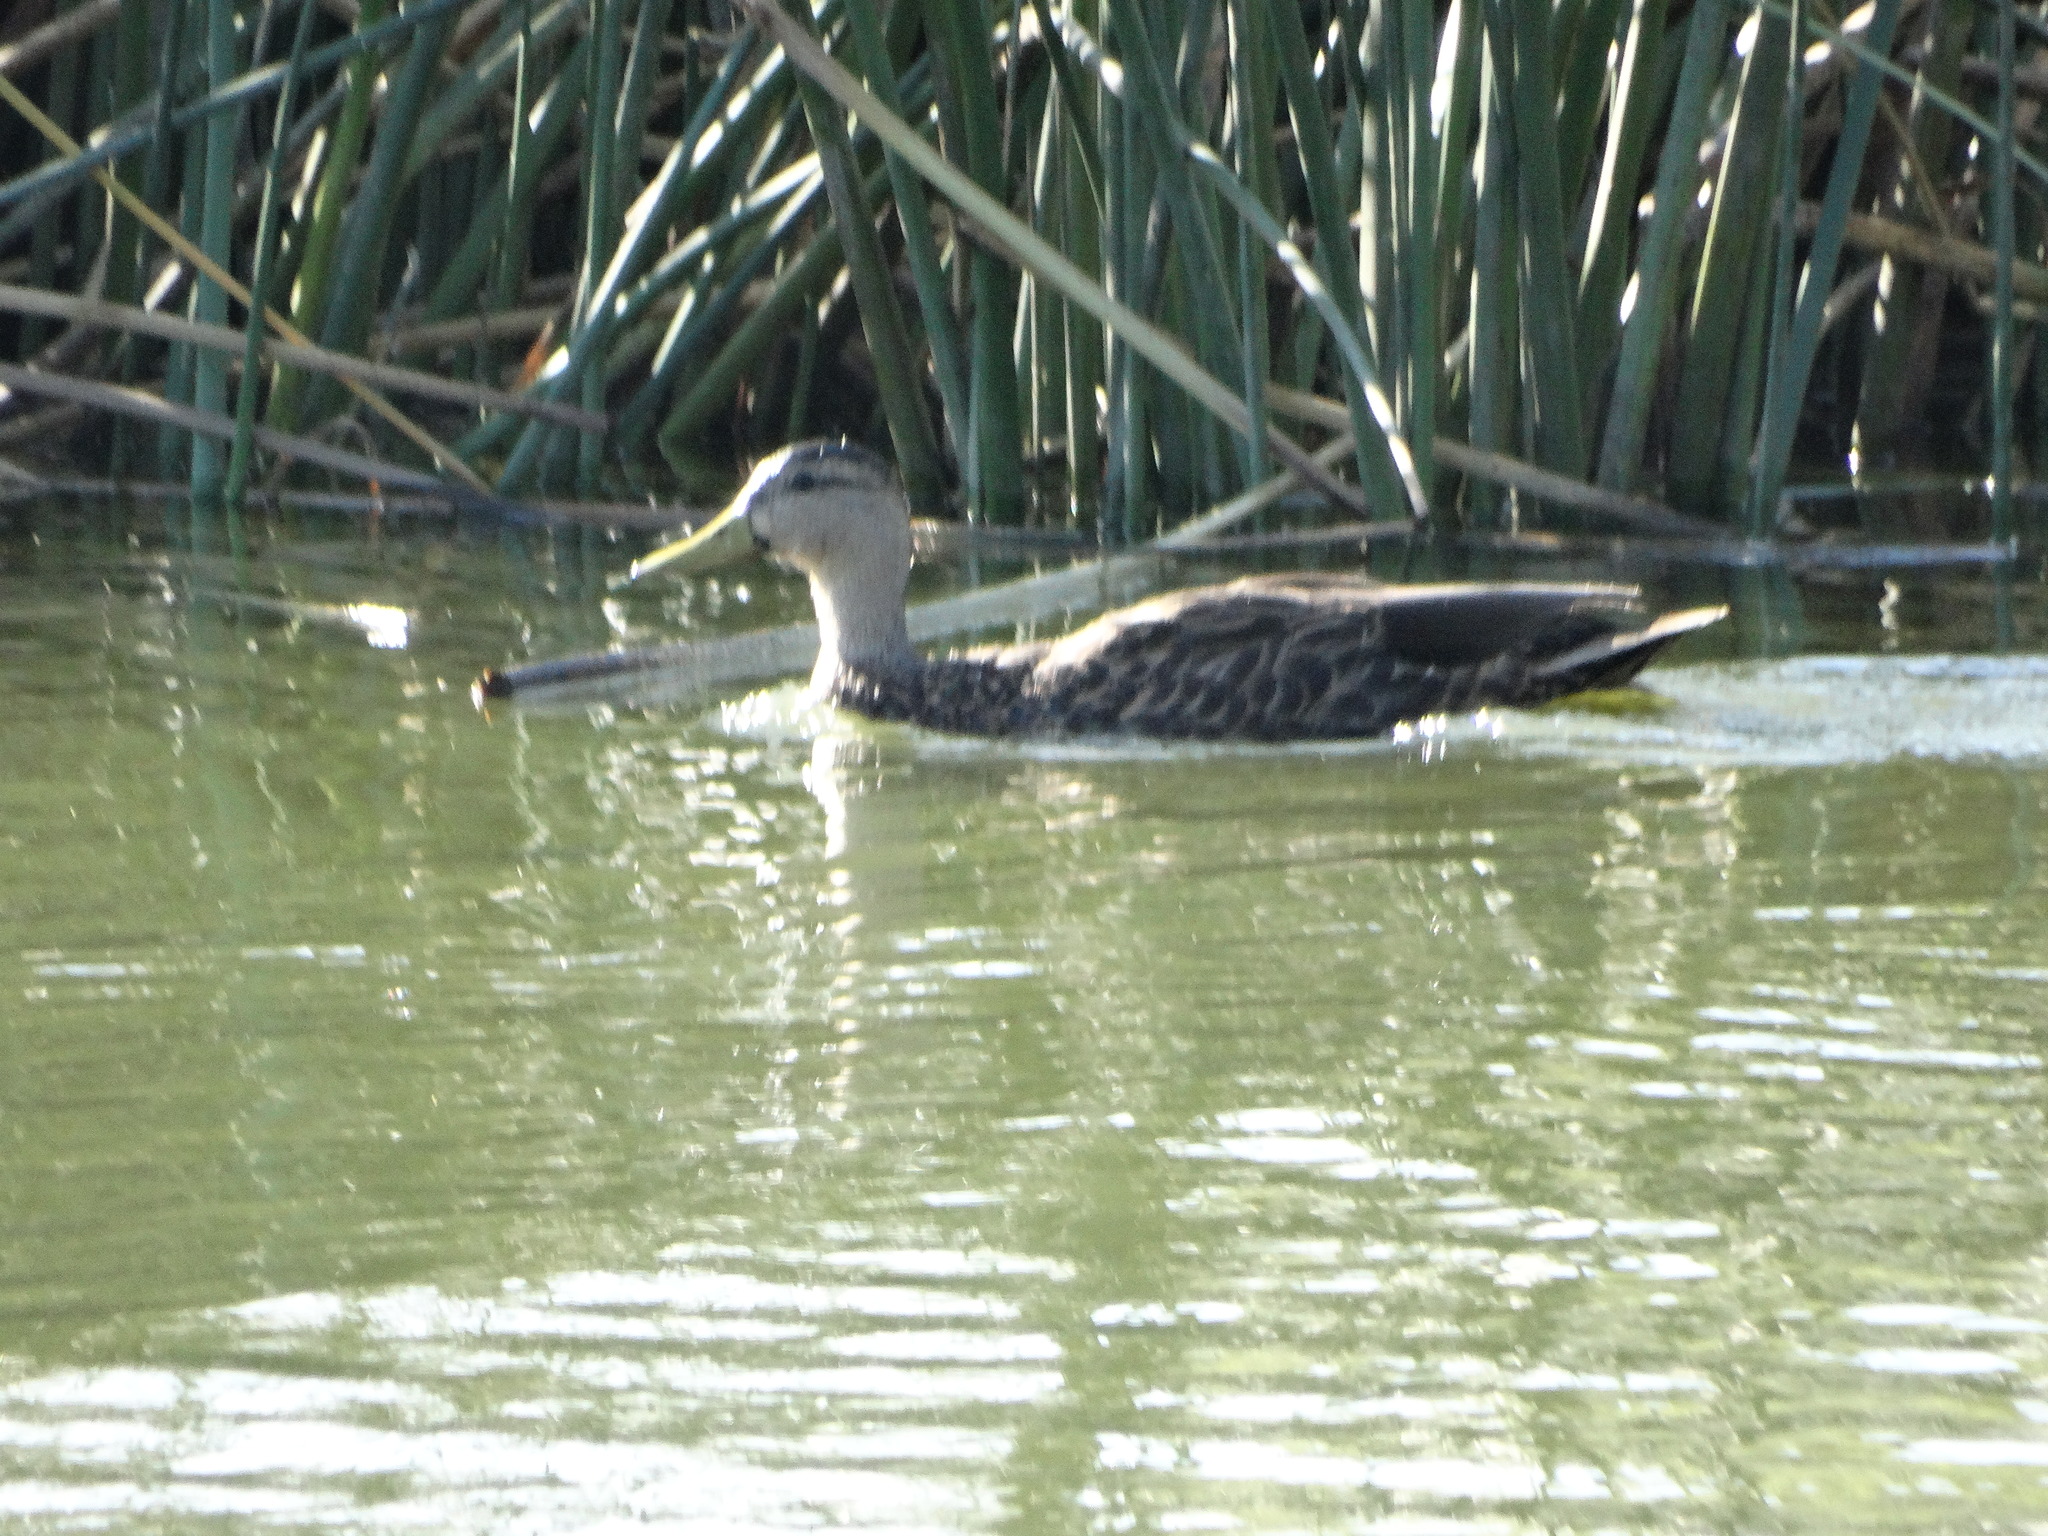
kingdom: Animalia
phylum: Chordata
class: Aves
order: Anseriformes
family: Anatidae
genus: Anas
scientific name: Anas diazi
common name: Mexican duck
